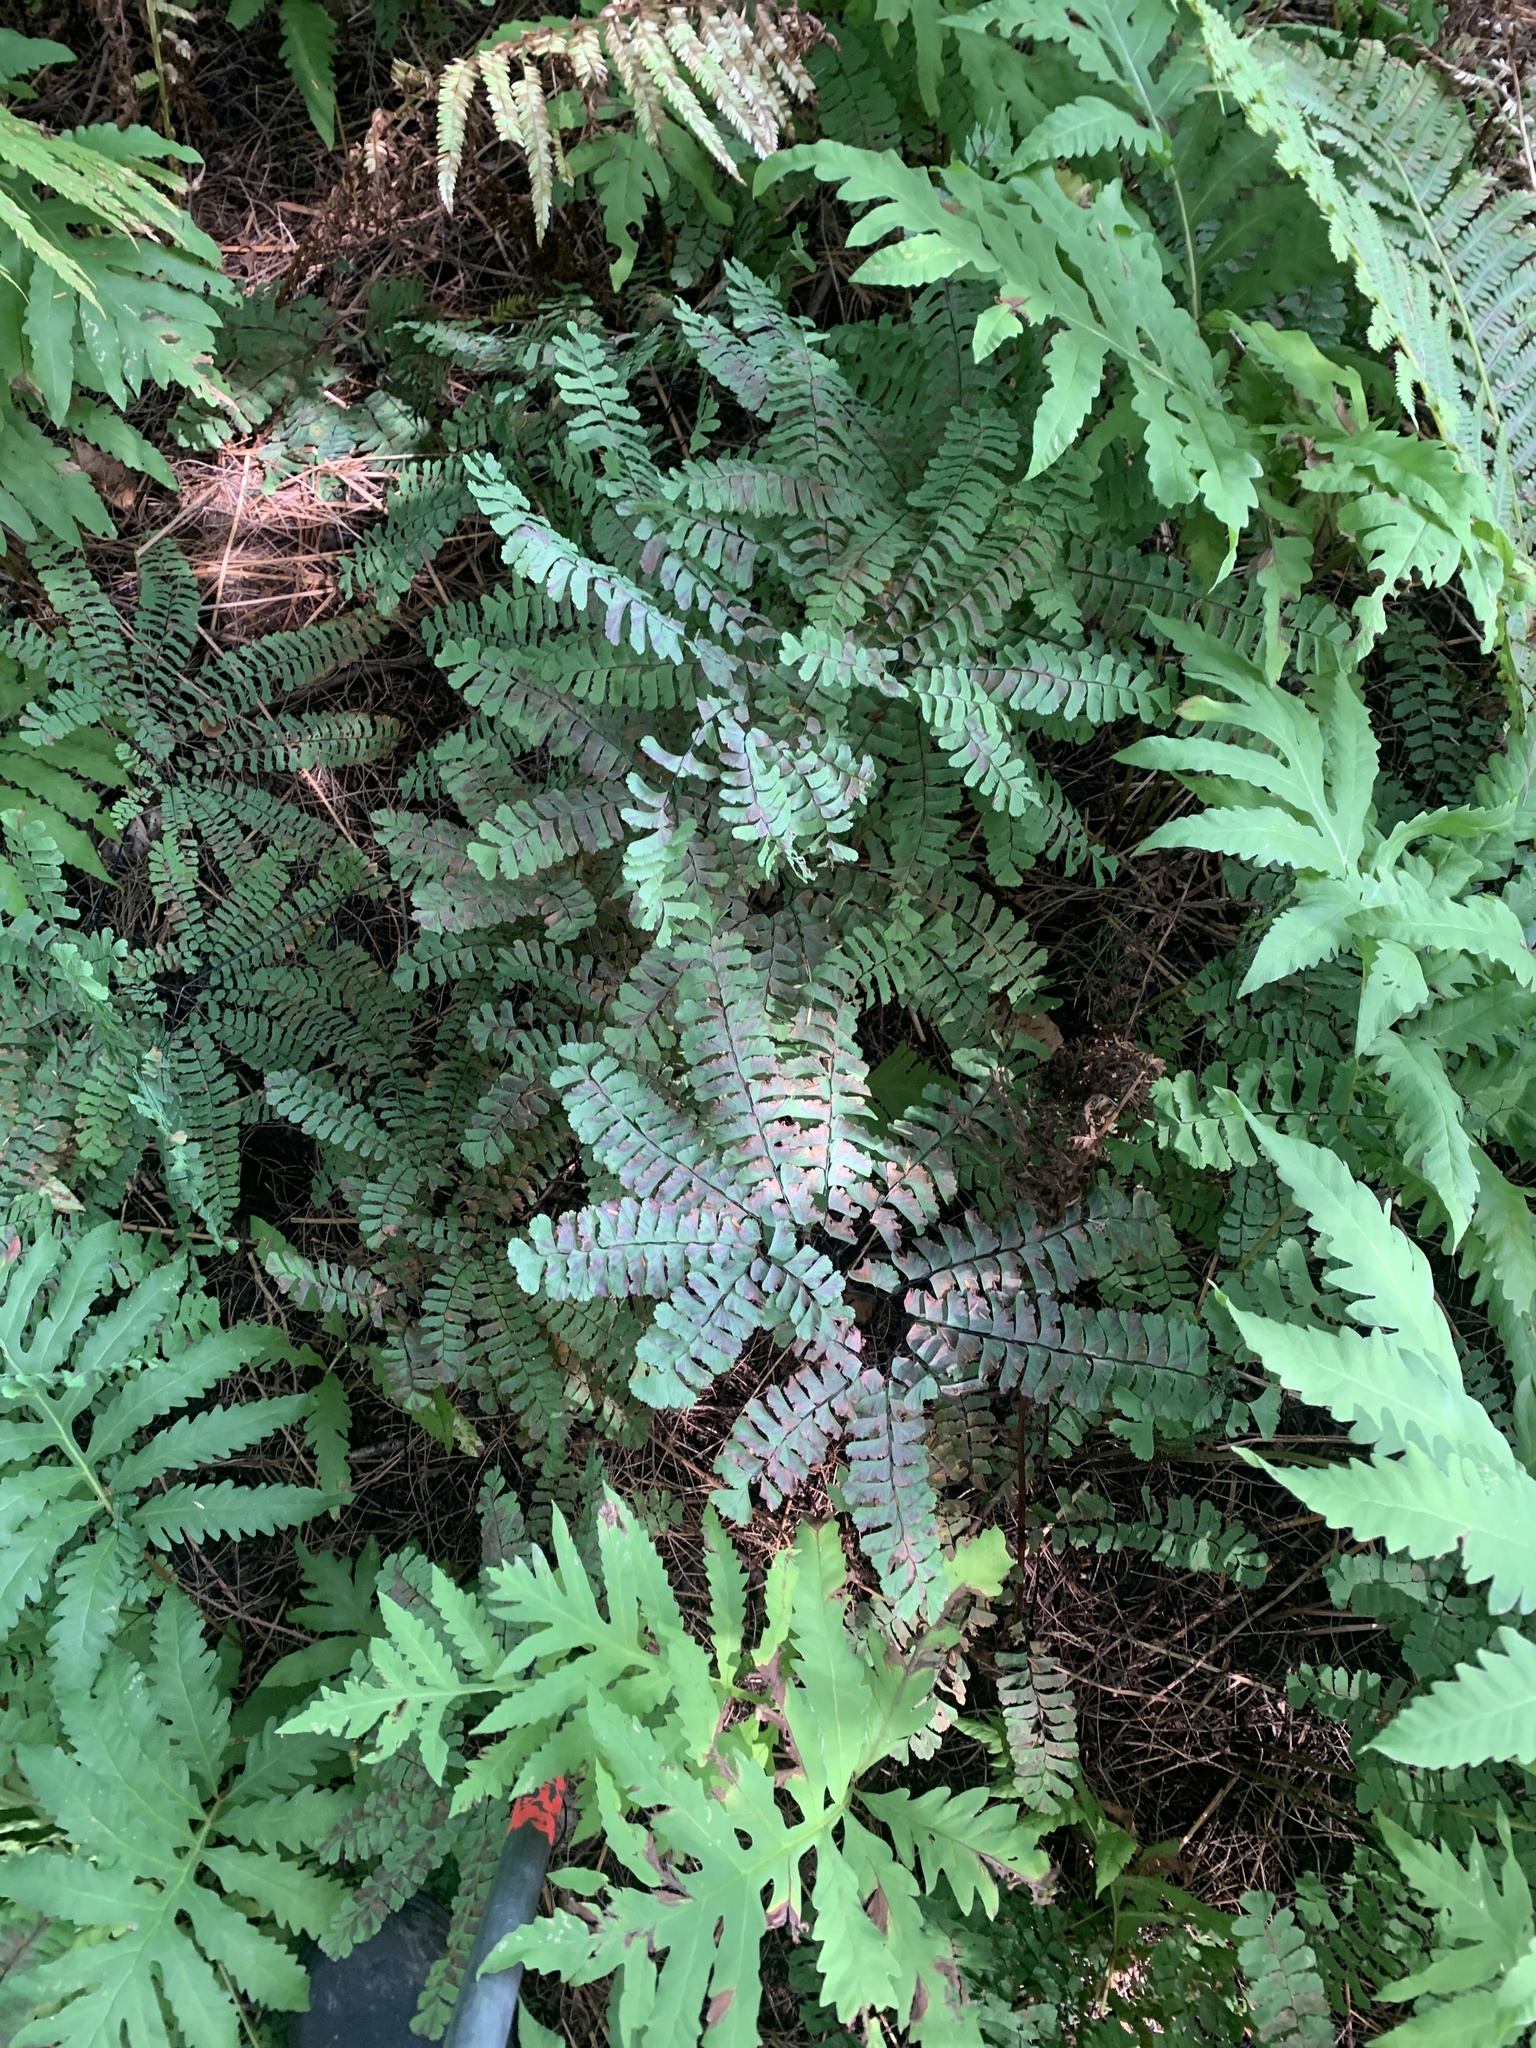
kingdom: Plantae
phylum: Tracheophyta
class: Polypodiopsida
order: Polypodiales
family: Pteridaceae
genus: Adiantum
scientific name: Adiantum pedatum
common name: Five-finger fern
